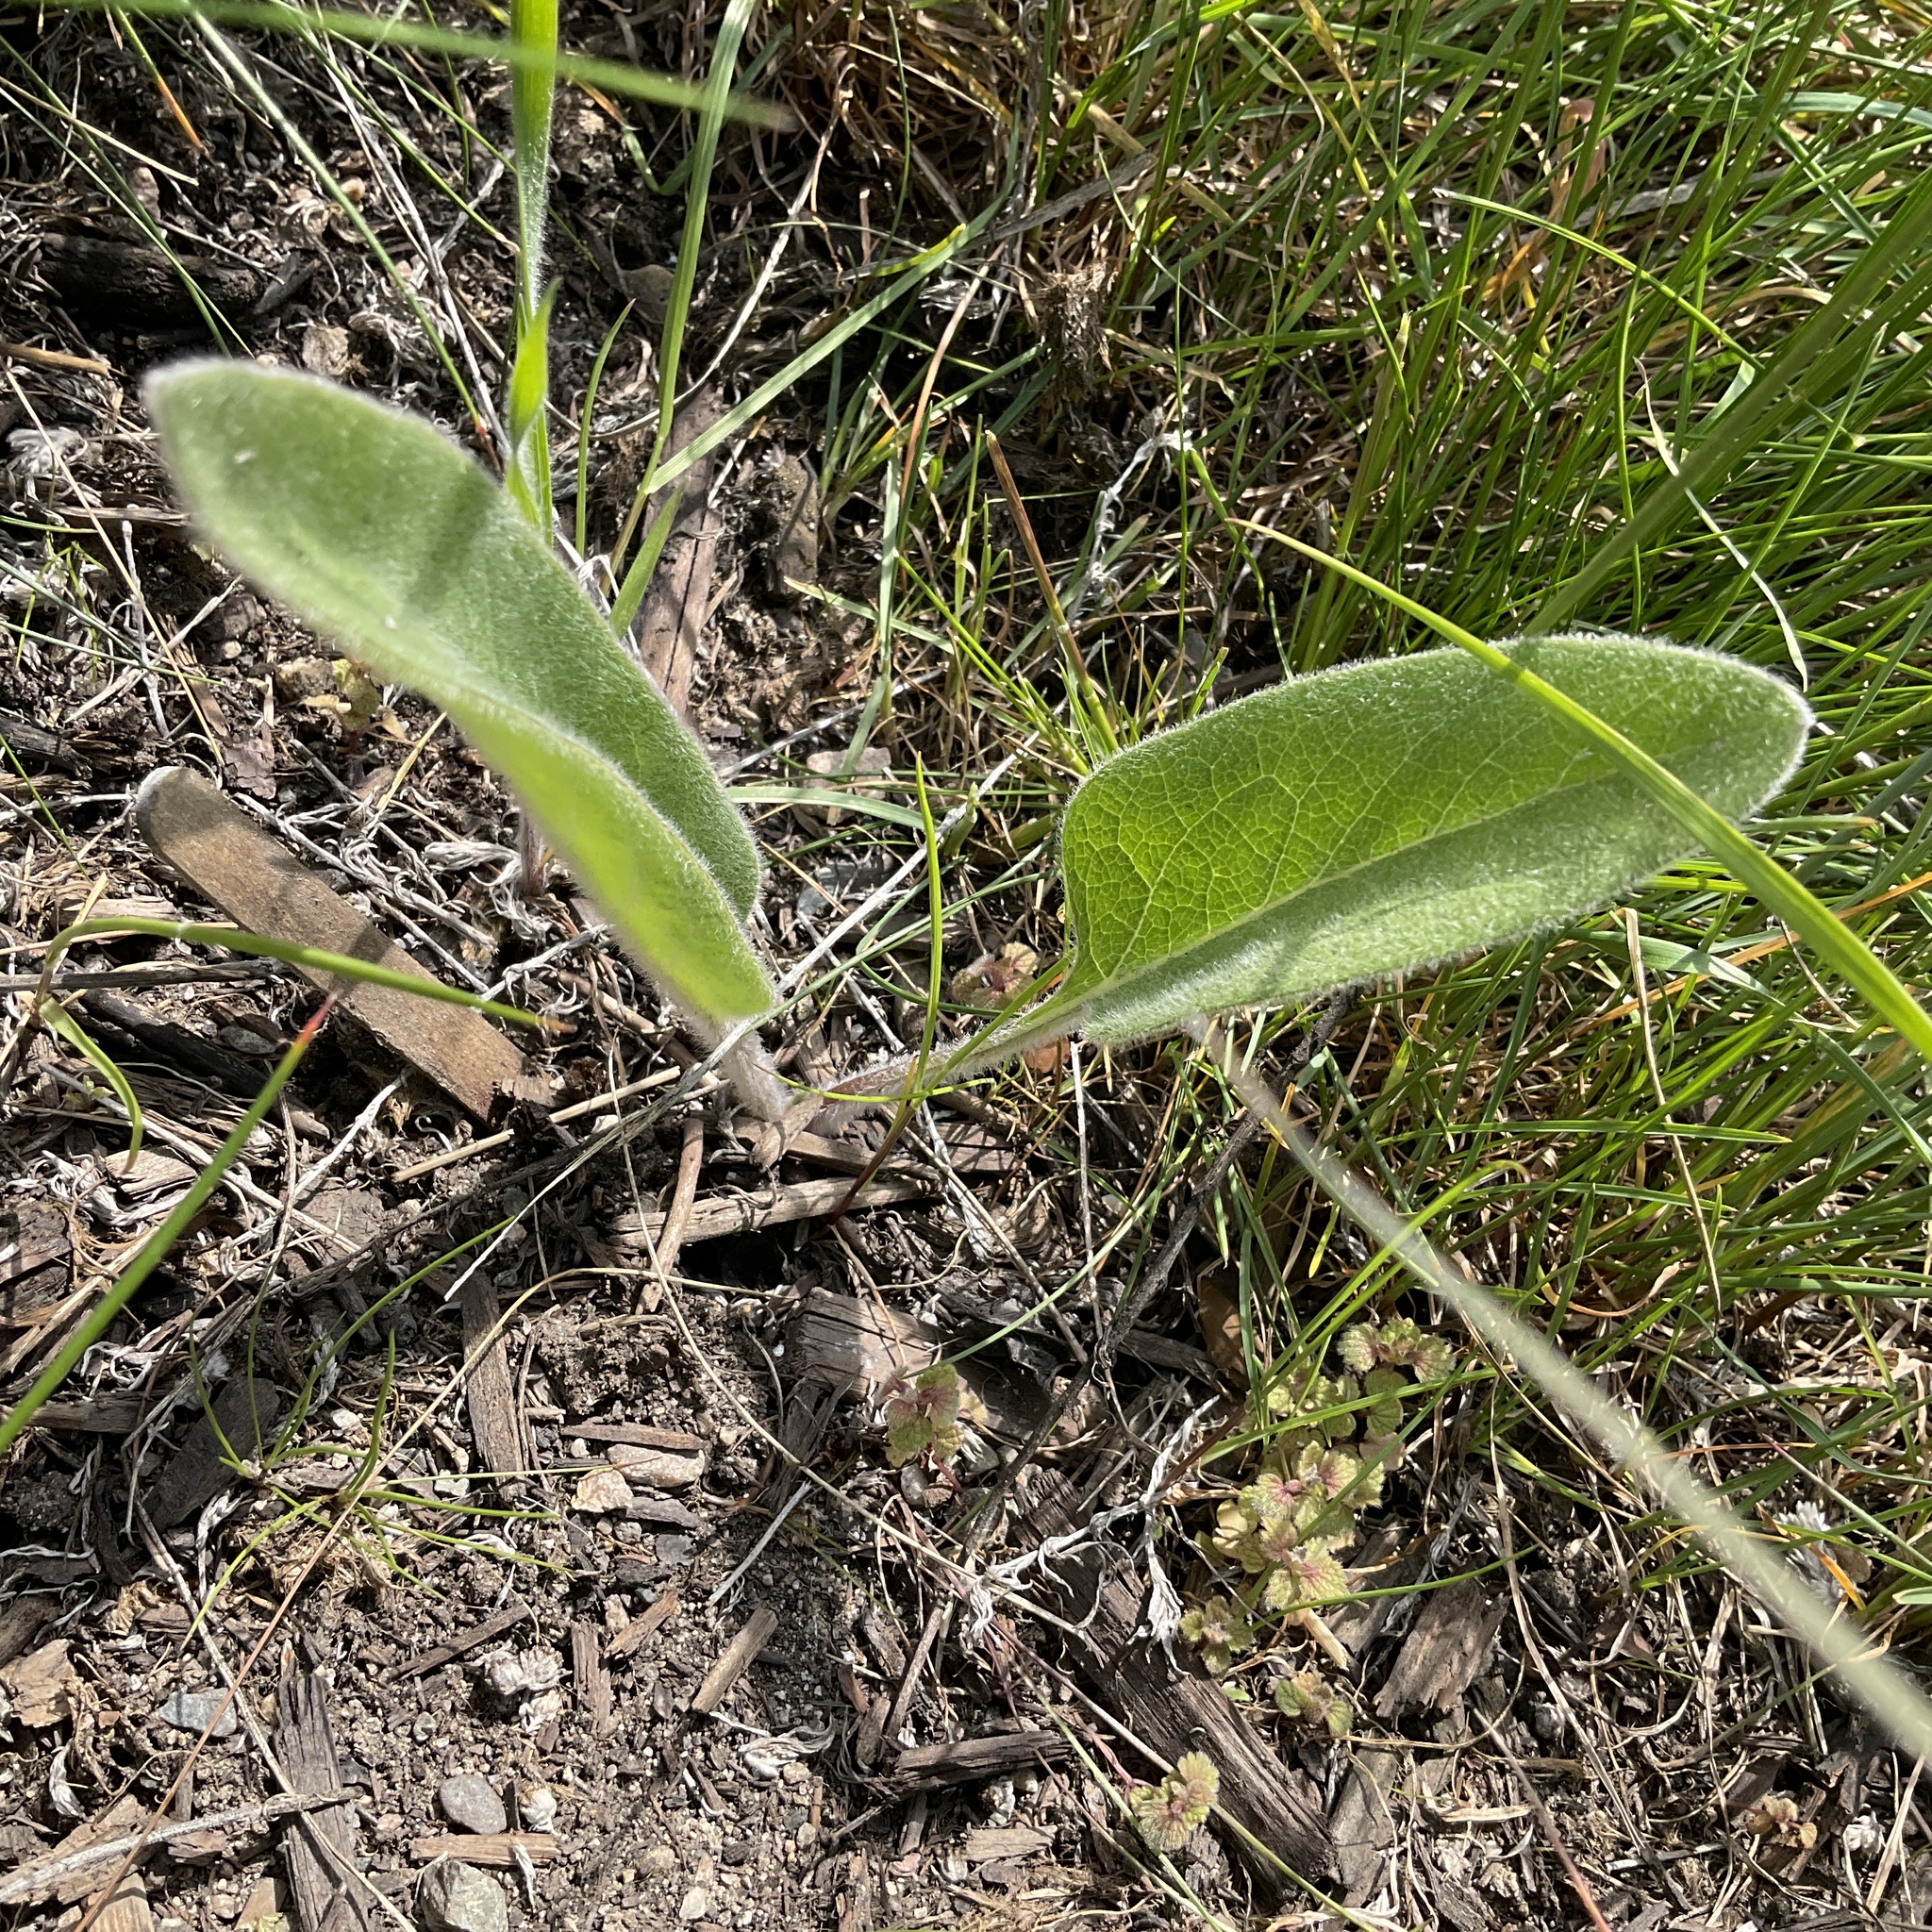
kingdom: Plantae
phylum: Tracheophyta
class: Magnoliopsida
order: Asterales
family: Asteraceae
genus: Wyethia
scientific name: Wyethia sagittata
